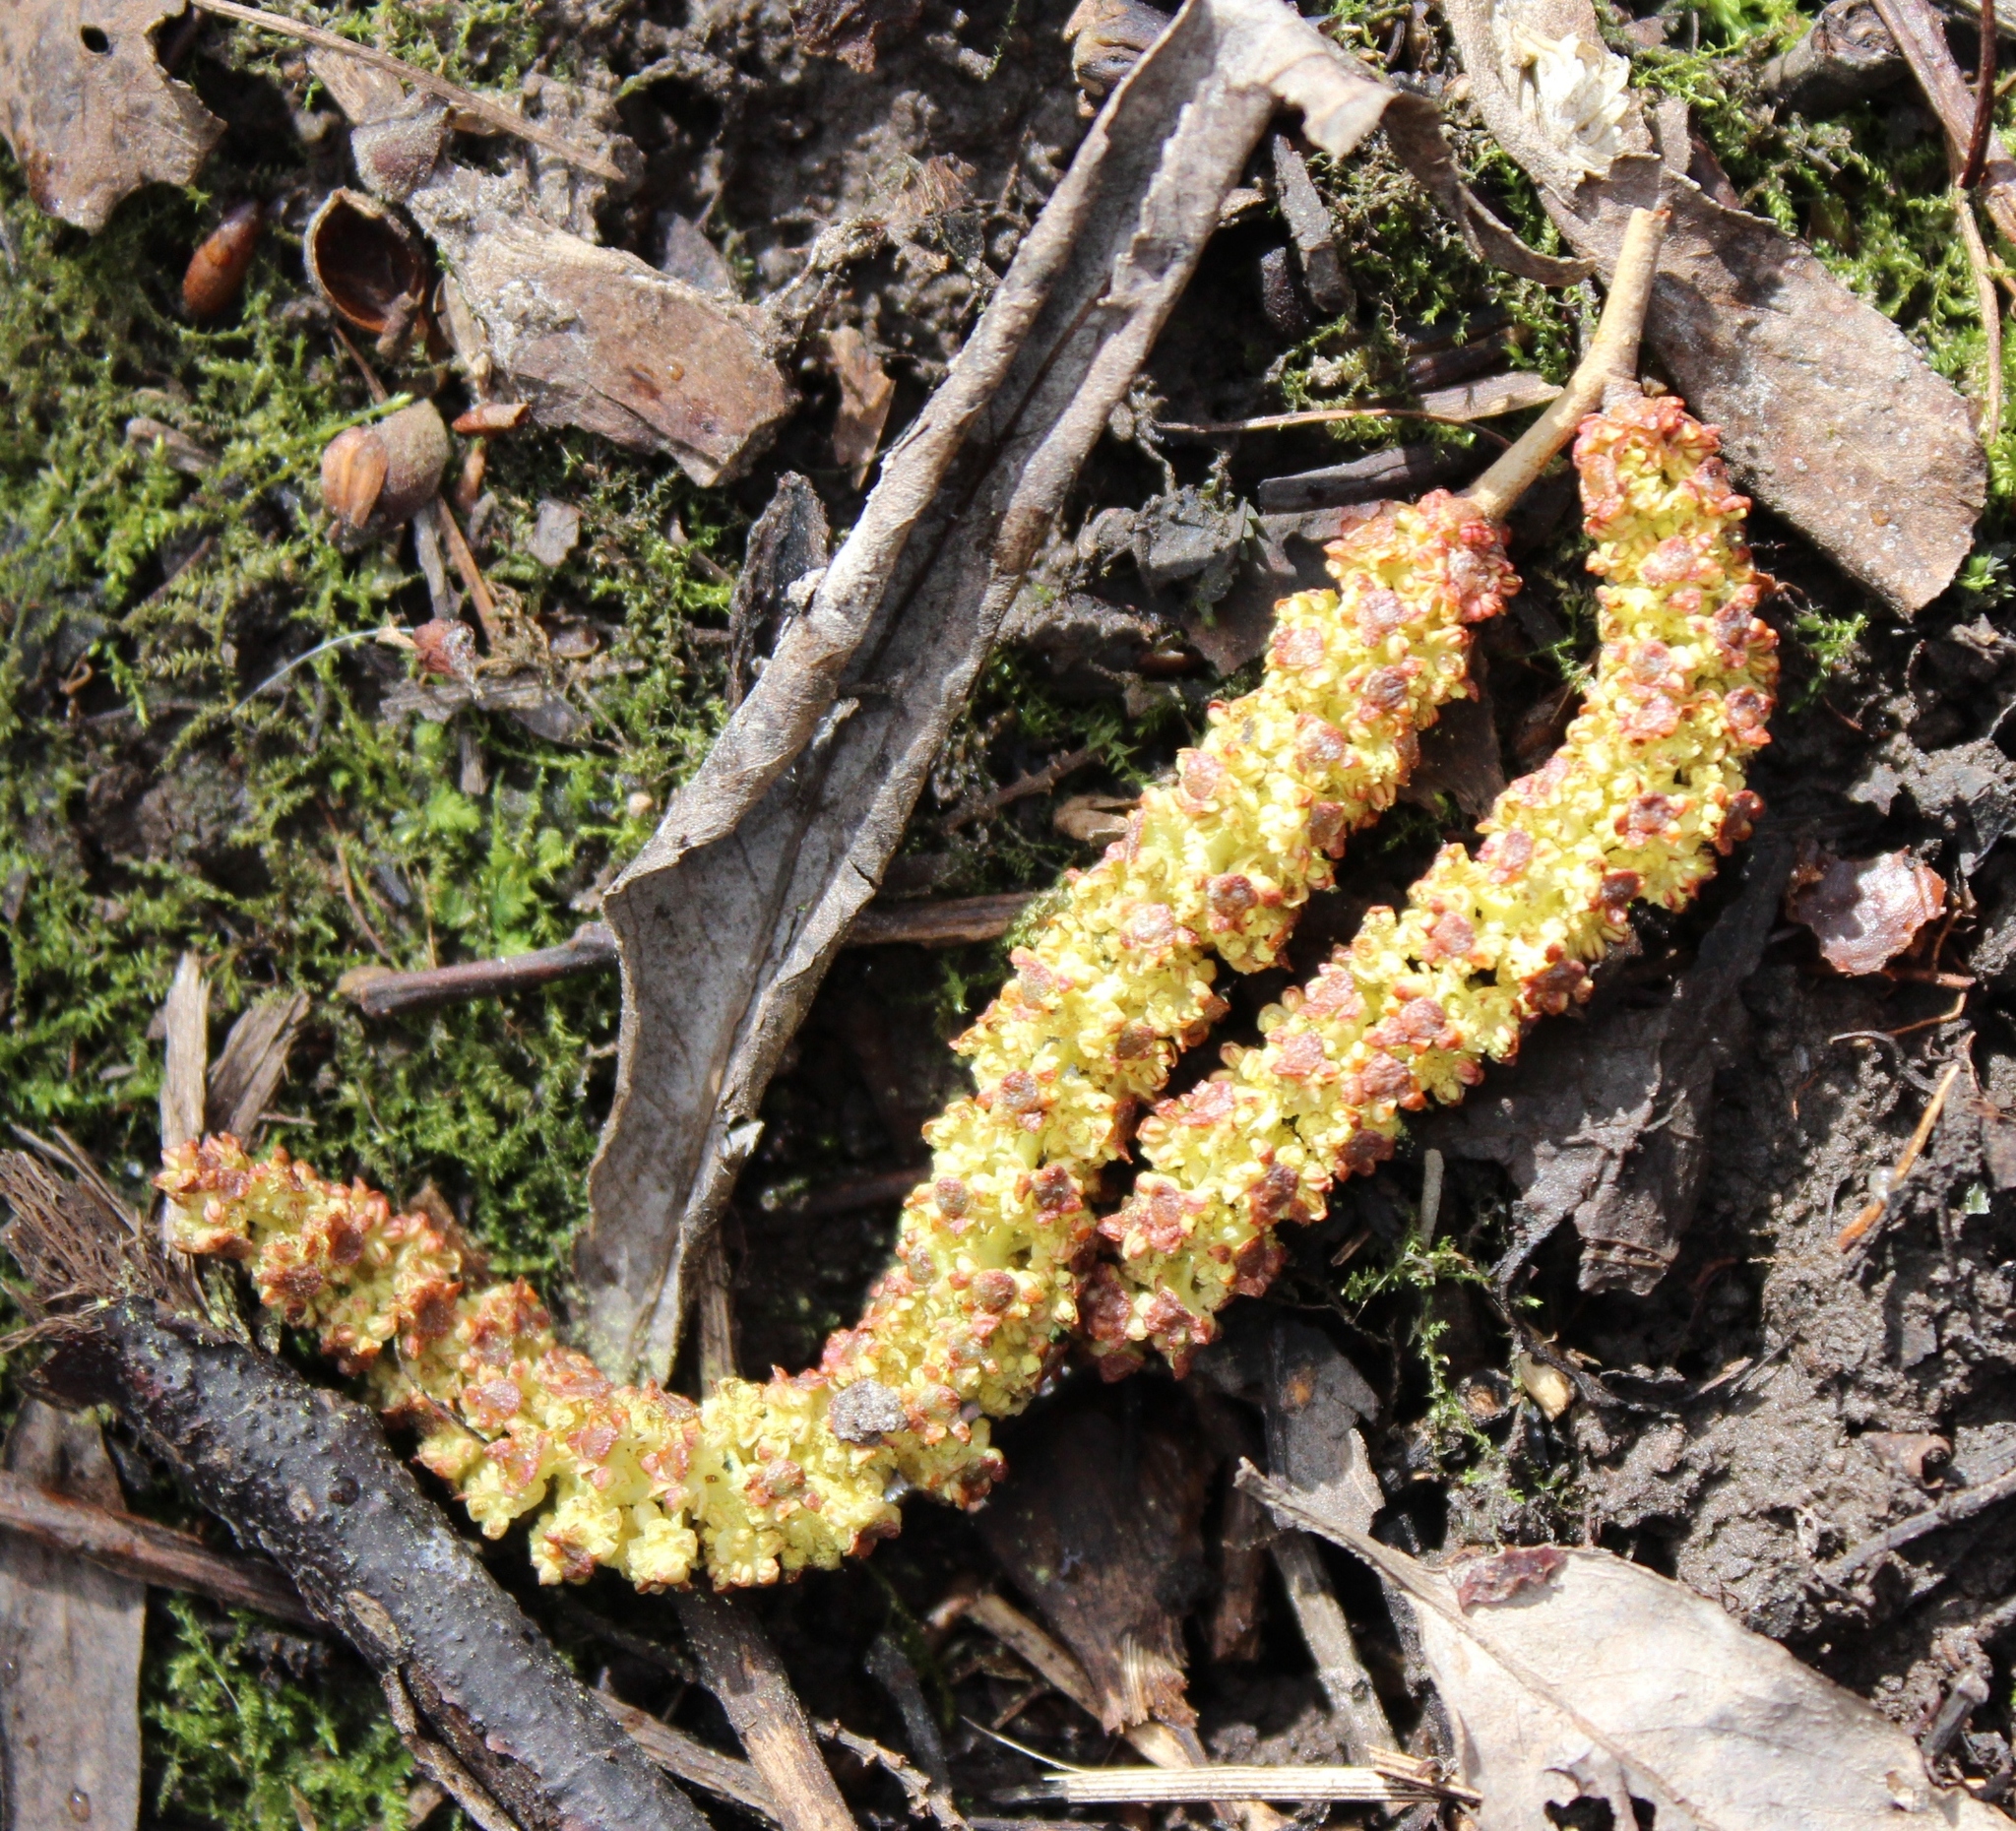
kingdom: Plantae
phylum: Tracheophyta
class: Magnoliopsida
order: Fagales
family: Betulaceae
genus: Alnus
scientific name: Alnus incana
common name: Grey alder
